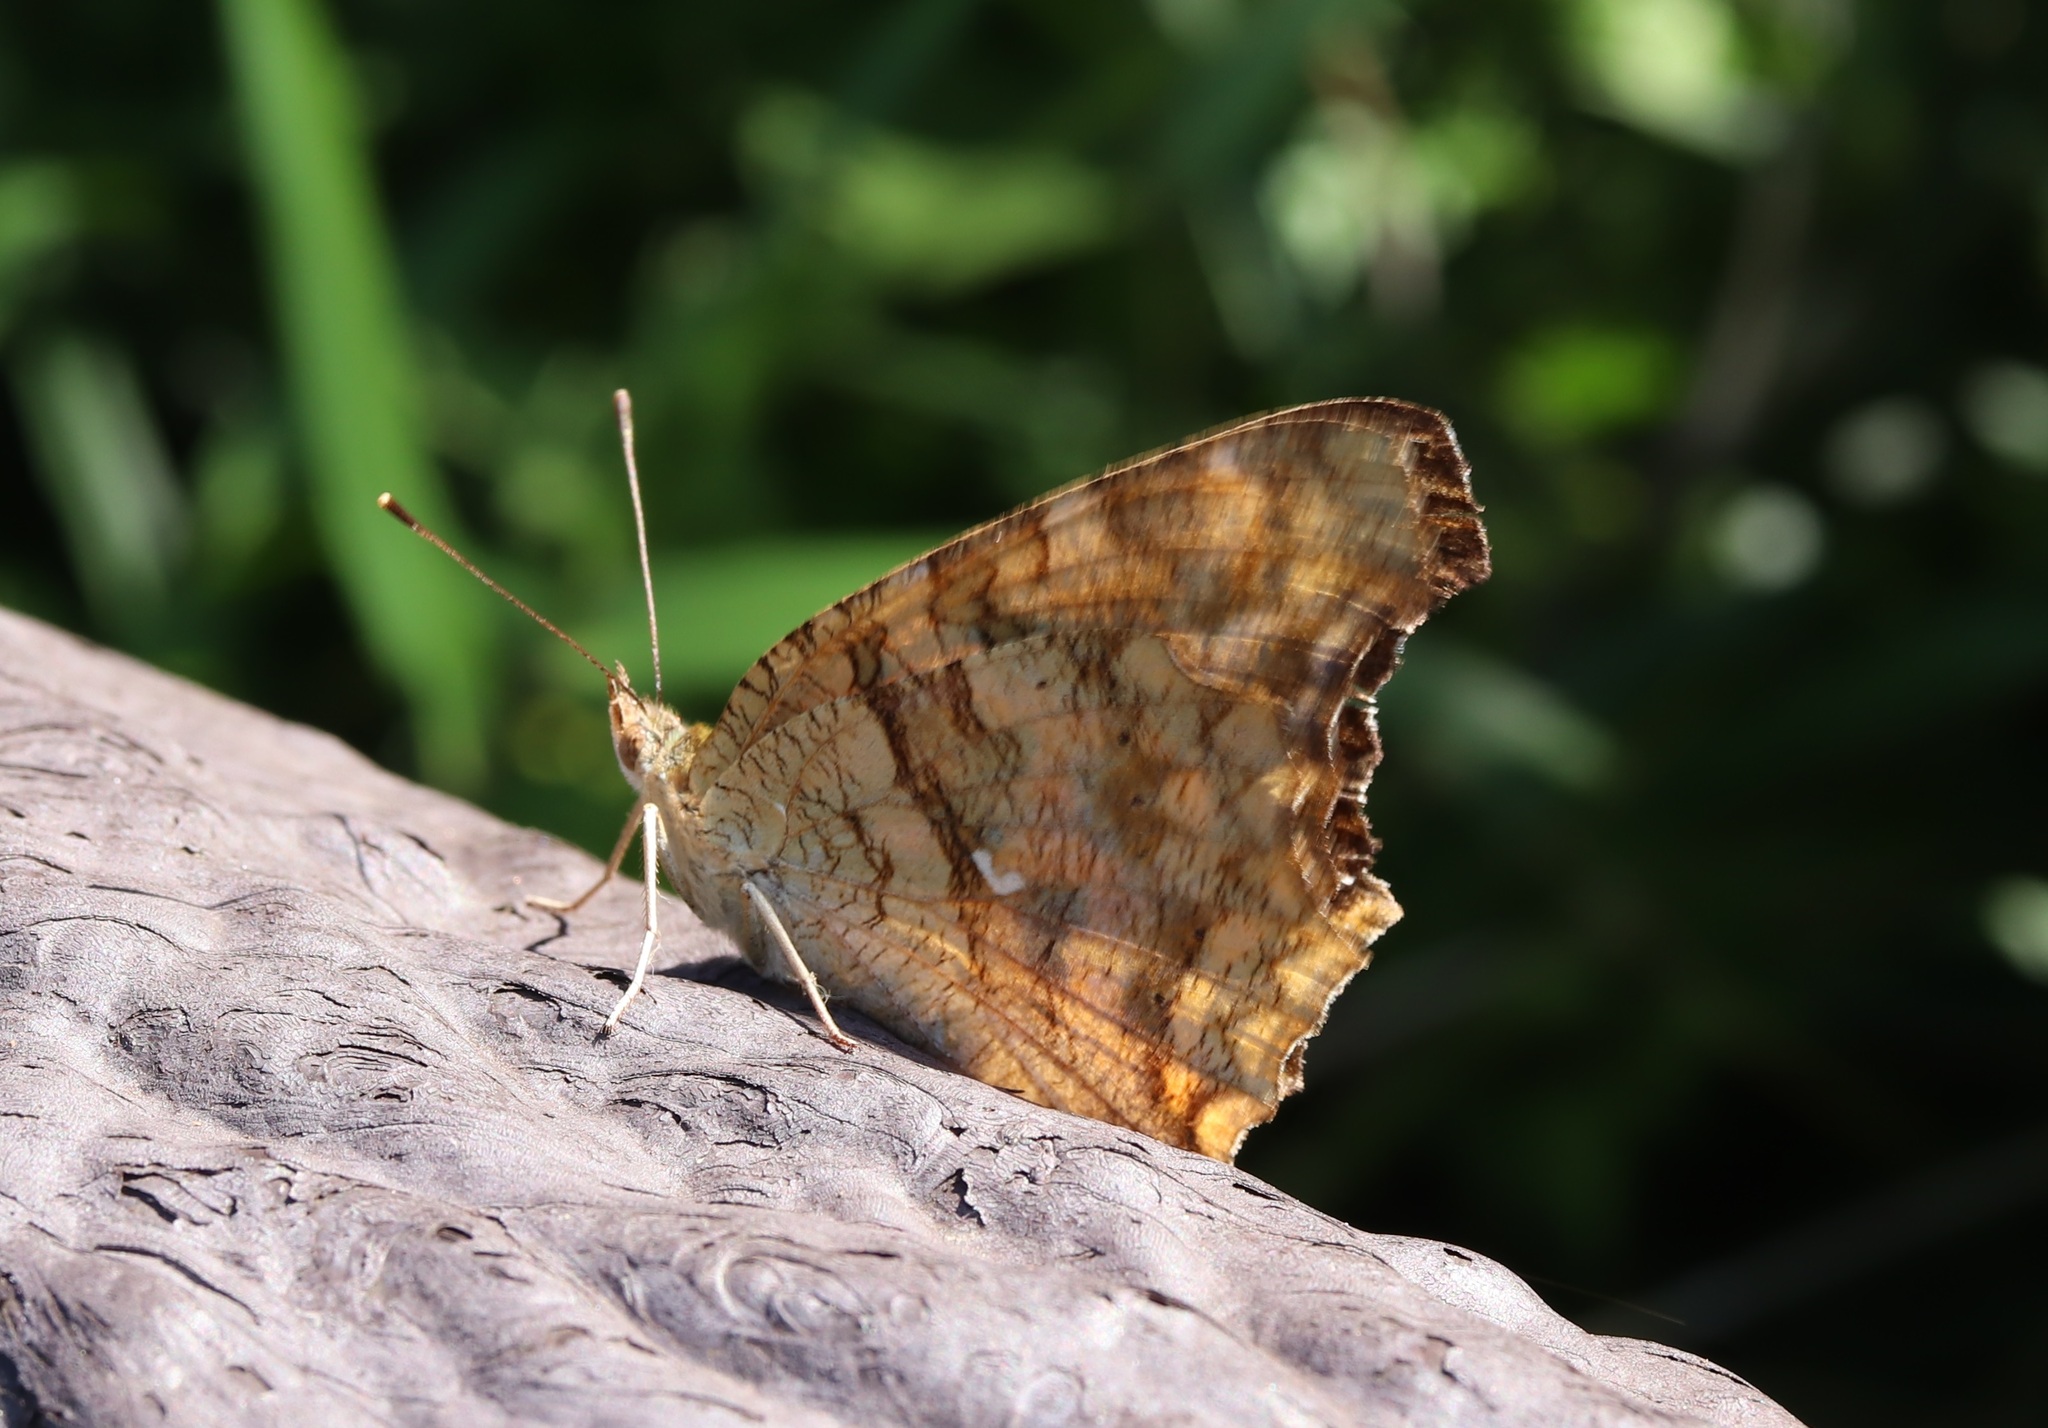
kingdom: Animalia
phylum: Arthropoda
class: Insecta
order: Lepidoptera
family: Nymphalidae
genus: Polygonia
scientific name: Polygonia c-aureum
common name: Asian comma
